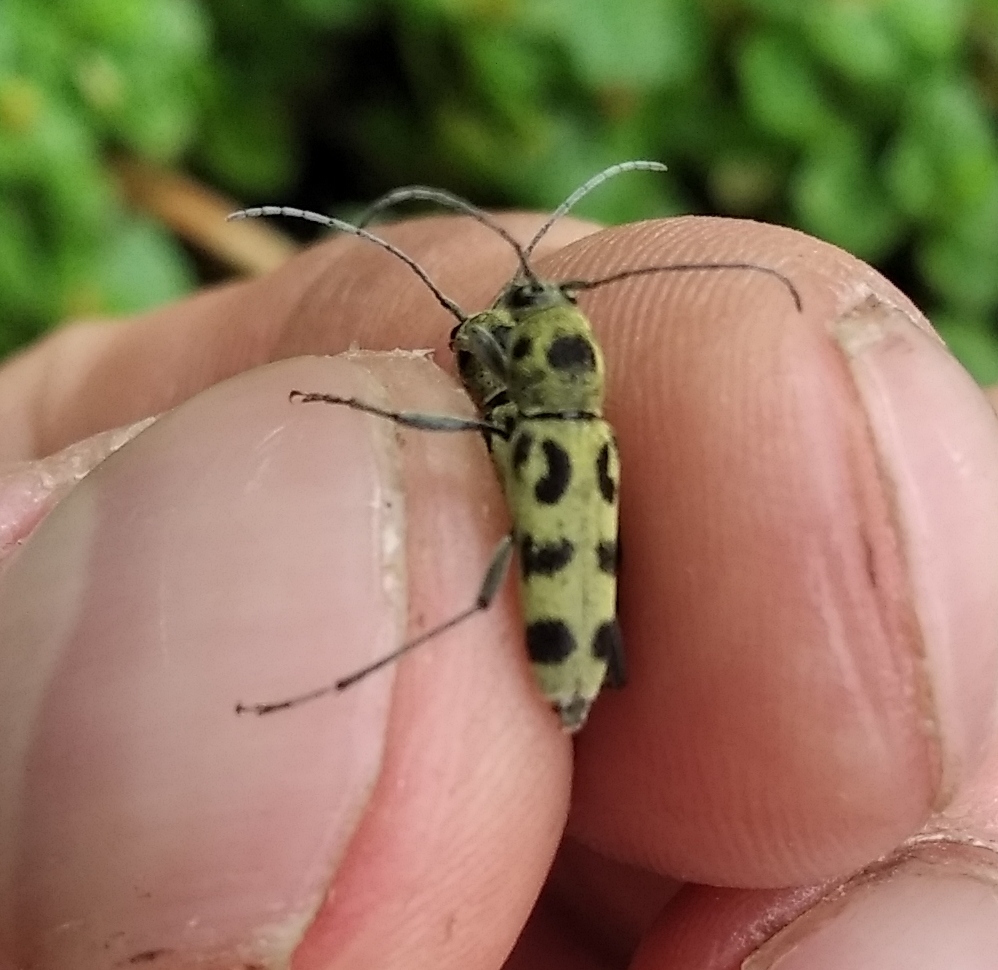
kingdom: Animalia
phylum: Arthropoda
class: Insecta
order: Coleoptera
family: Cerambycidae
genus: Chlorophorus
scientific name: Chlorophorus herbstii
